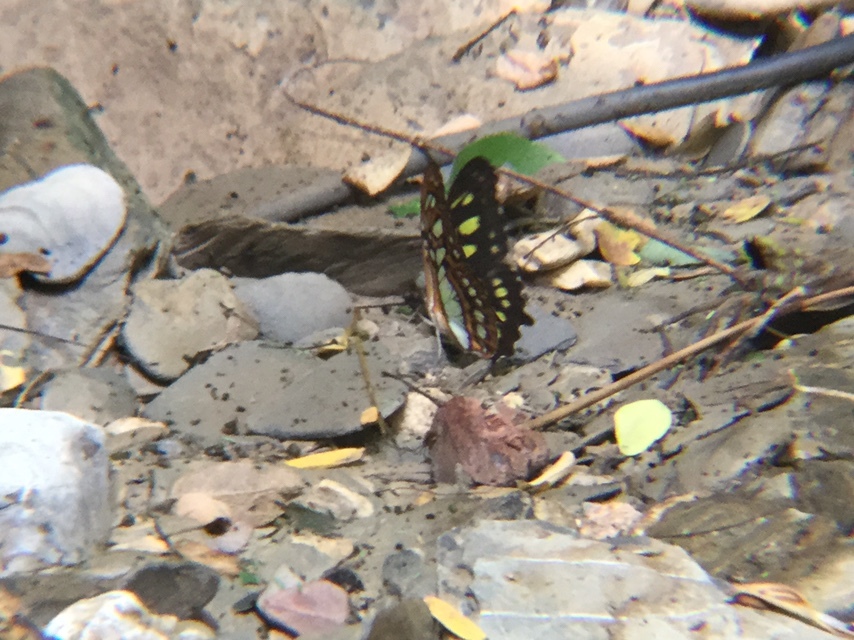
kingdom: Animalia
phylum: Arthropoda
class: Insecta
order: Lepidoptera
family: Nymphalidae
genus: Siproeta
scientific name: Siproeta stelenes
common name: Malachite
